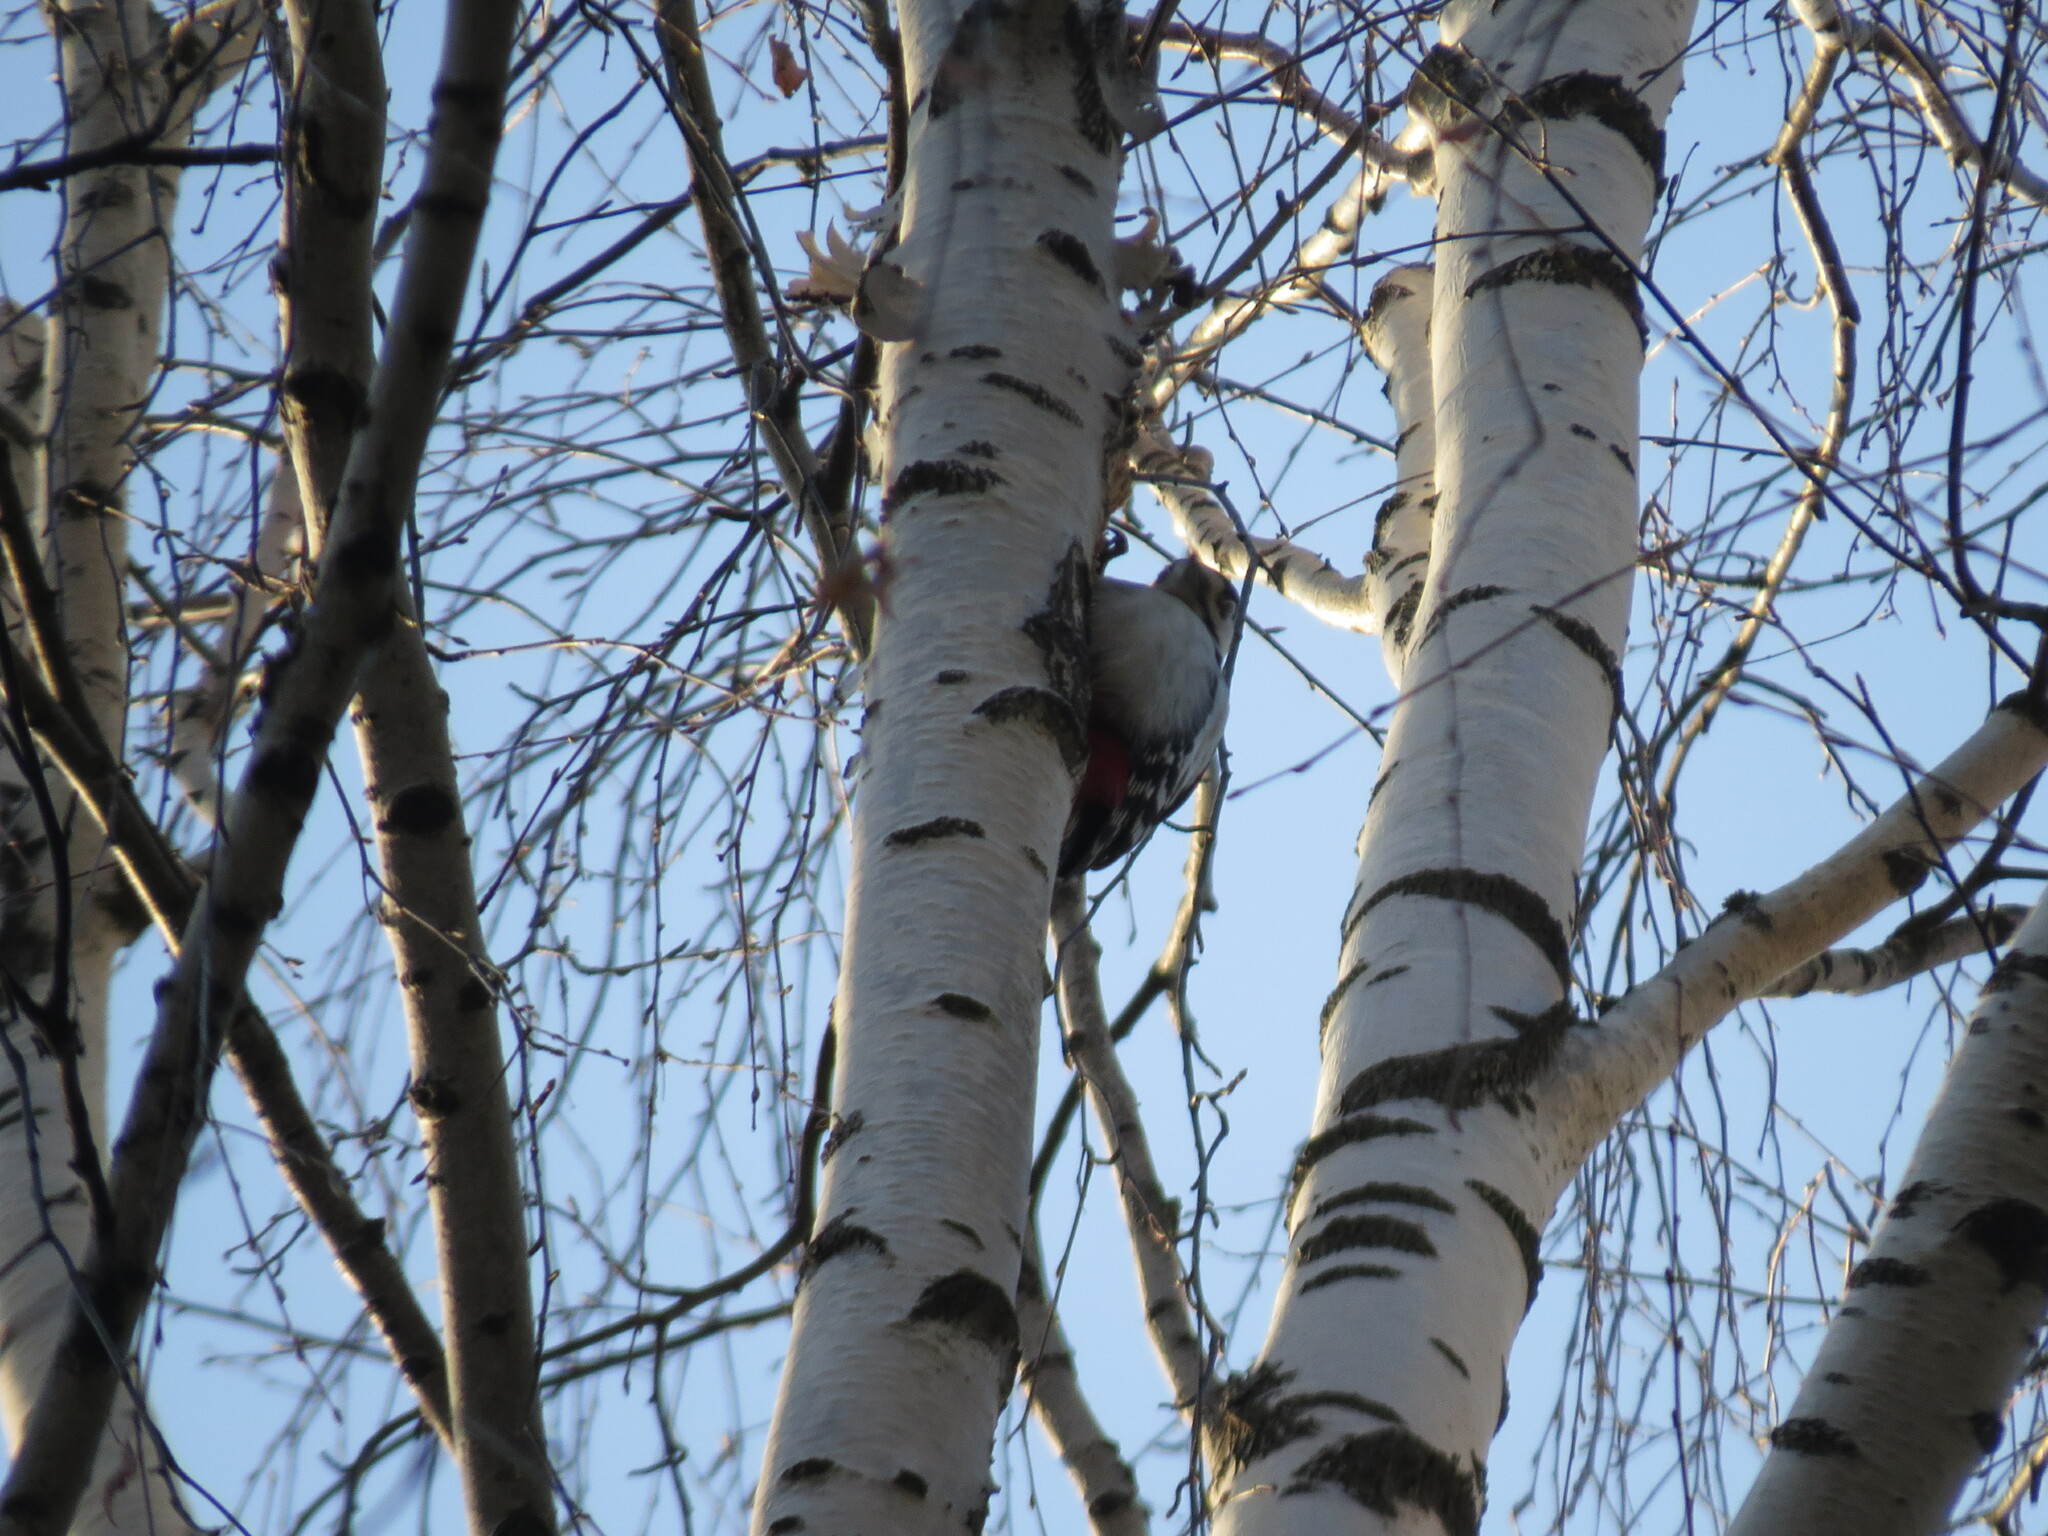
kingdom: Animalia
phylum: Chordata
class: Aves
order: Piciformes
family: Picidae
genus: Dendrocopos
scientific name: Dendrocopos major
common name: Great spotted woodpecker
